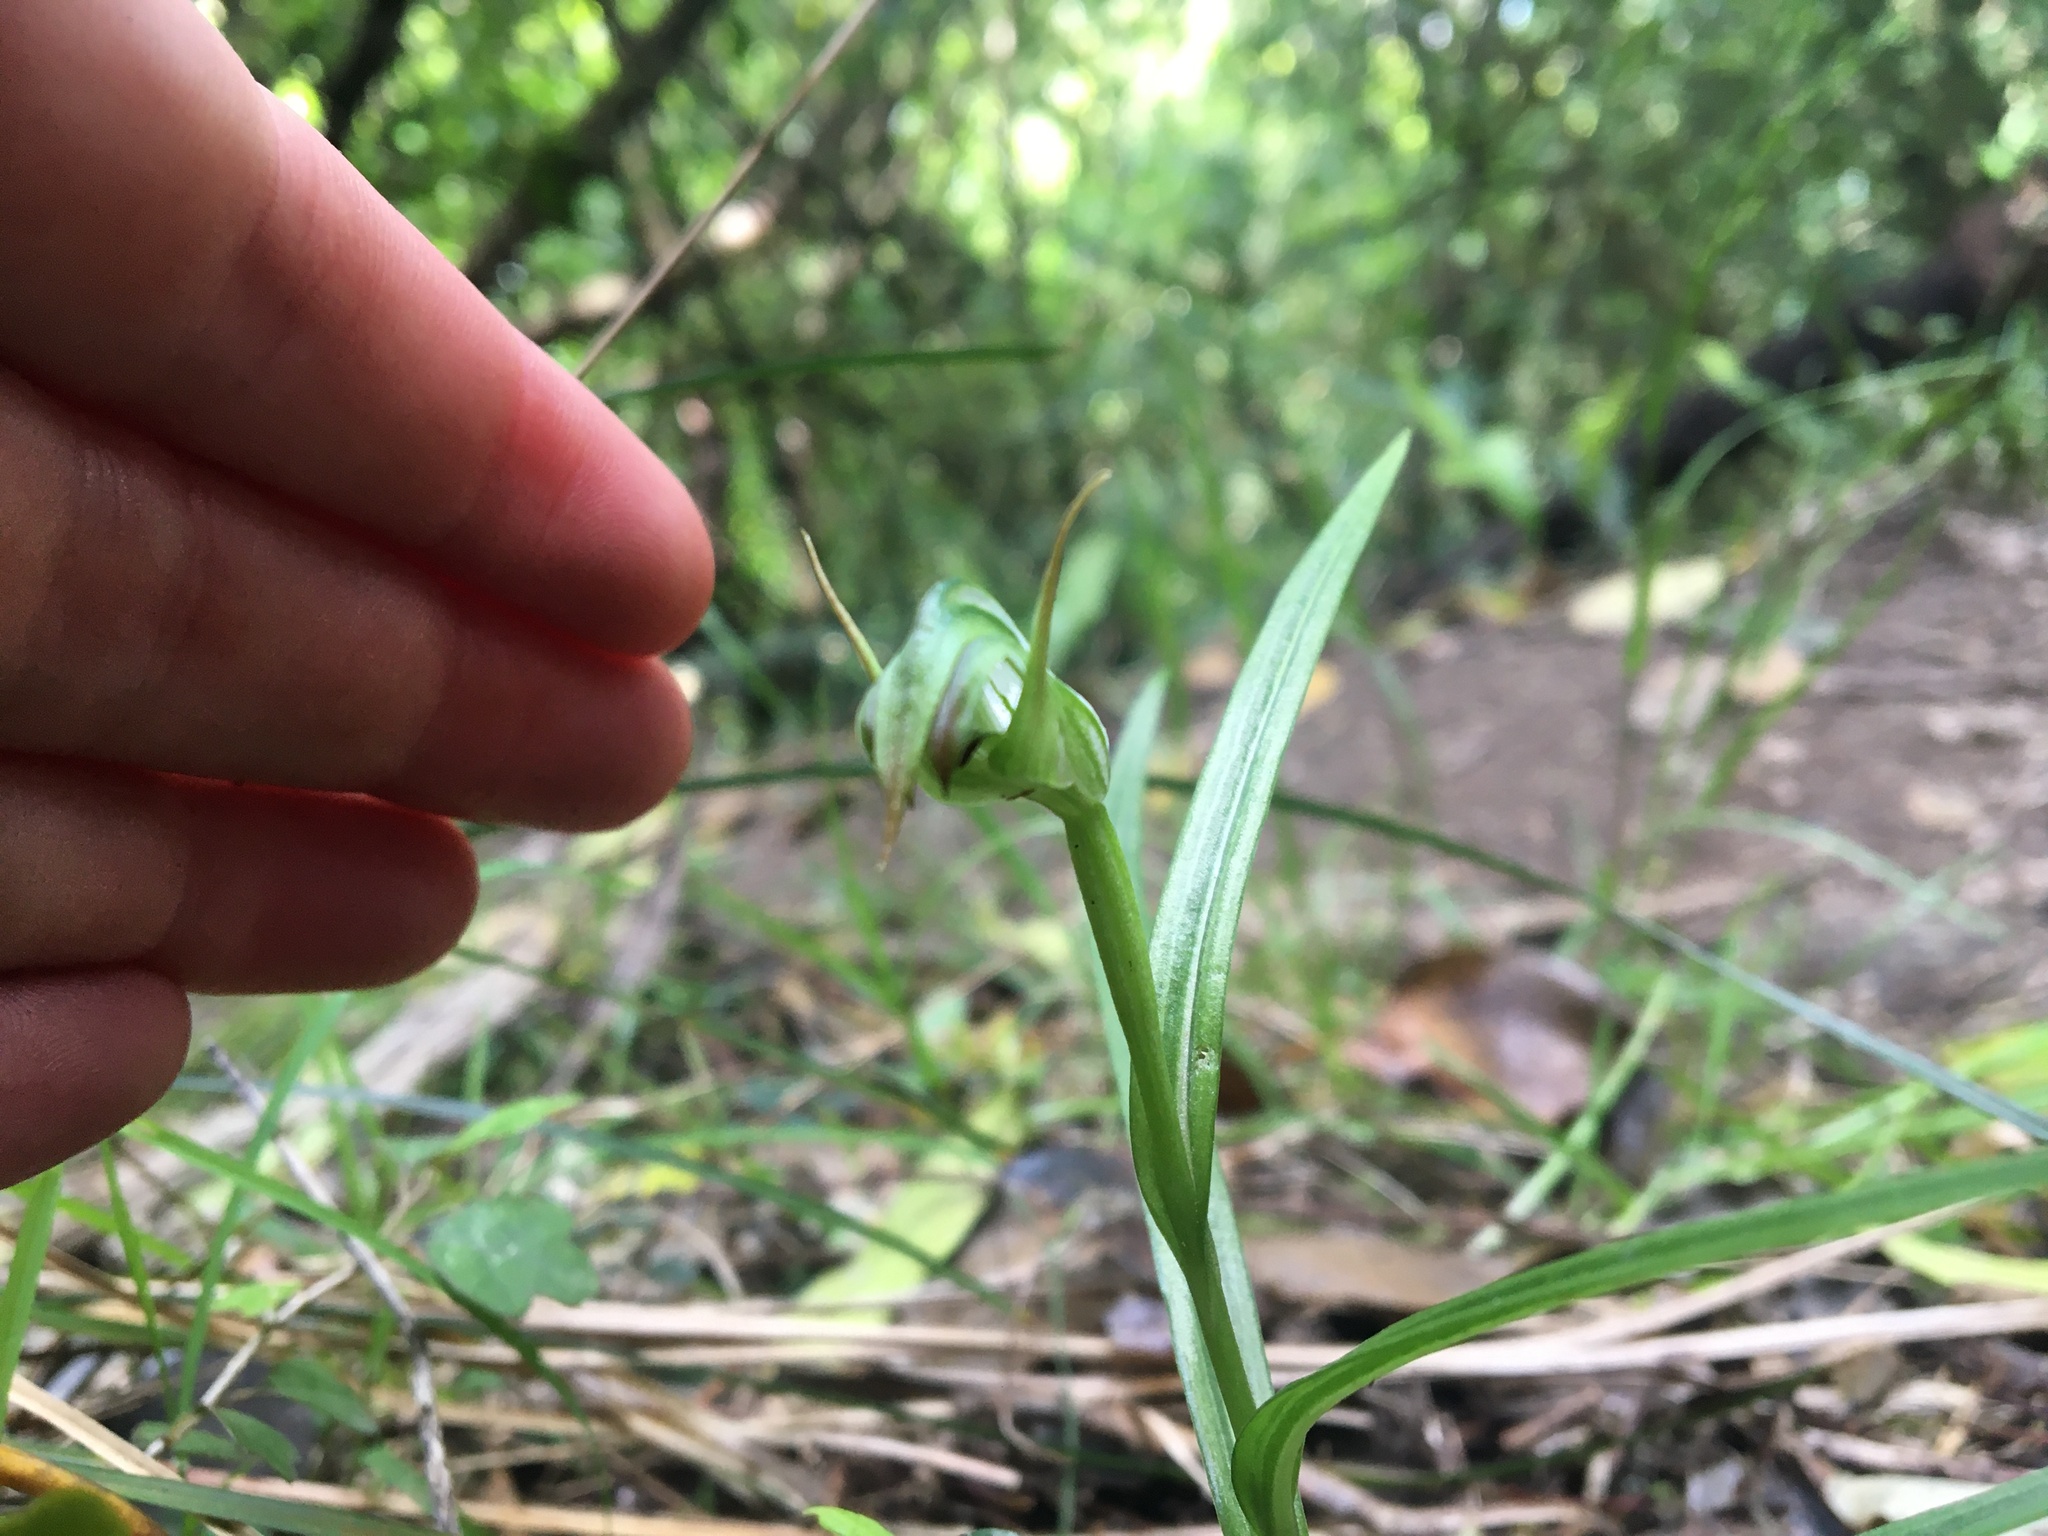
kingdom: Plantae
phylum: Tracheophyta
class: Liliopsida
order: Asparagales
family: Orchidaceae
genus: Pterostylis
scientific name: Pterostylis graminea
